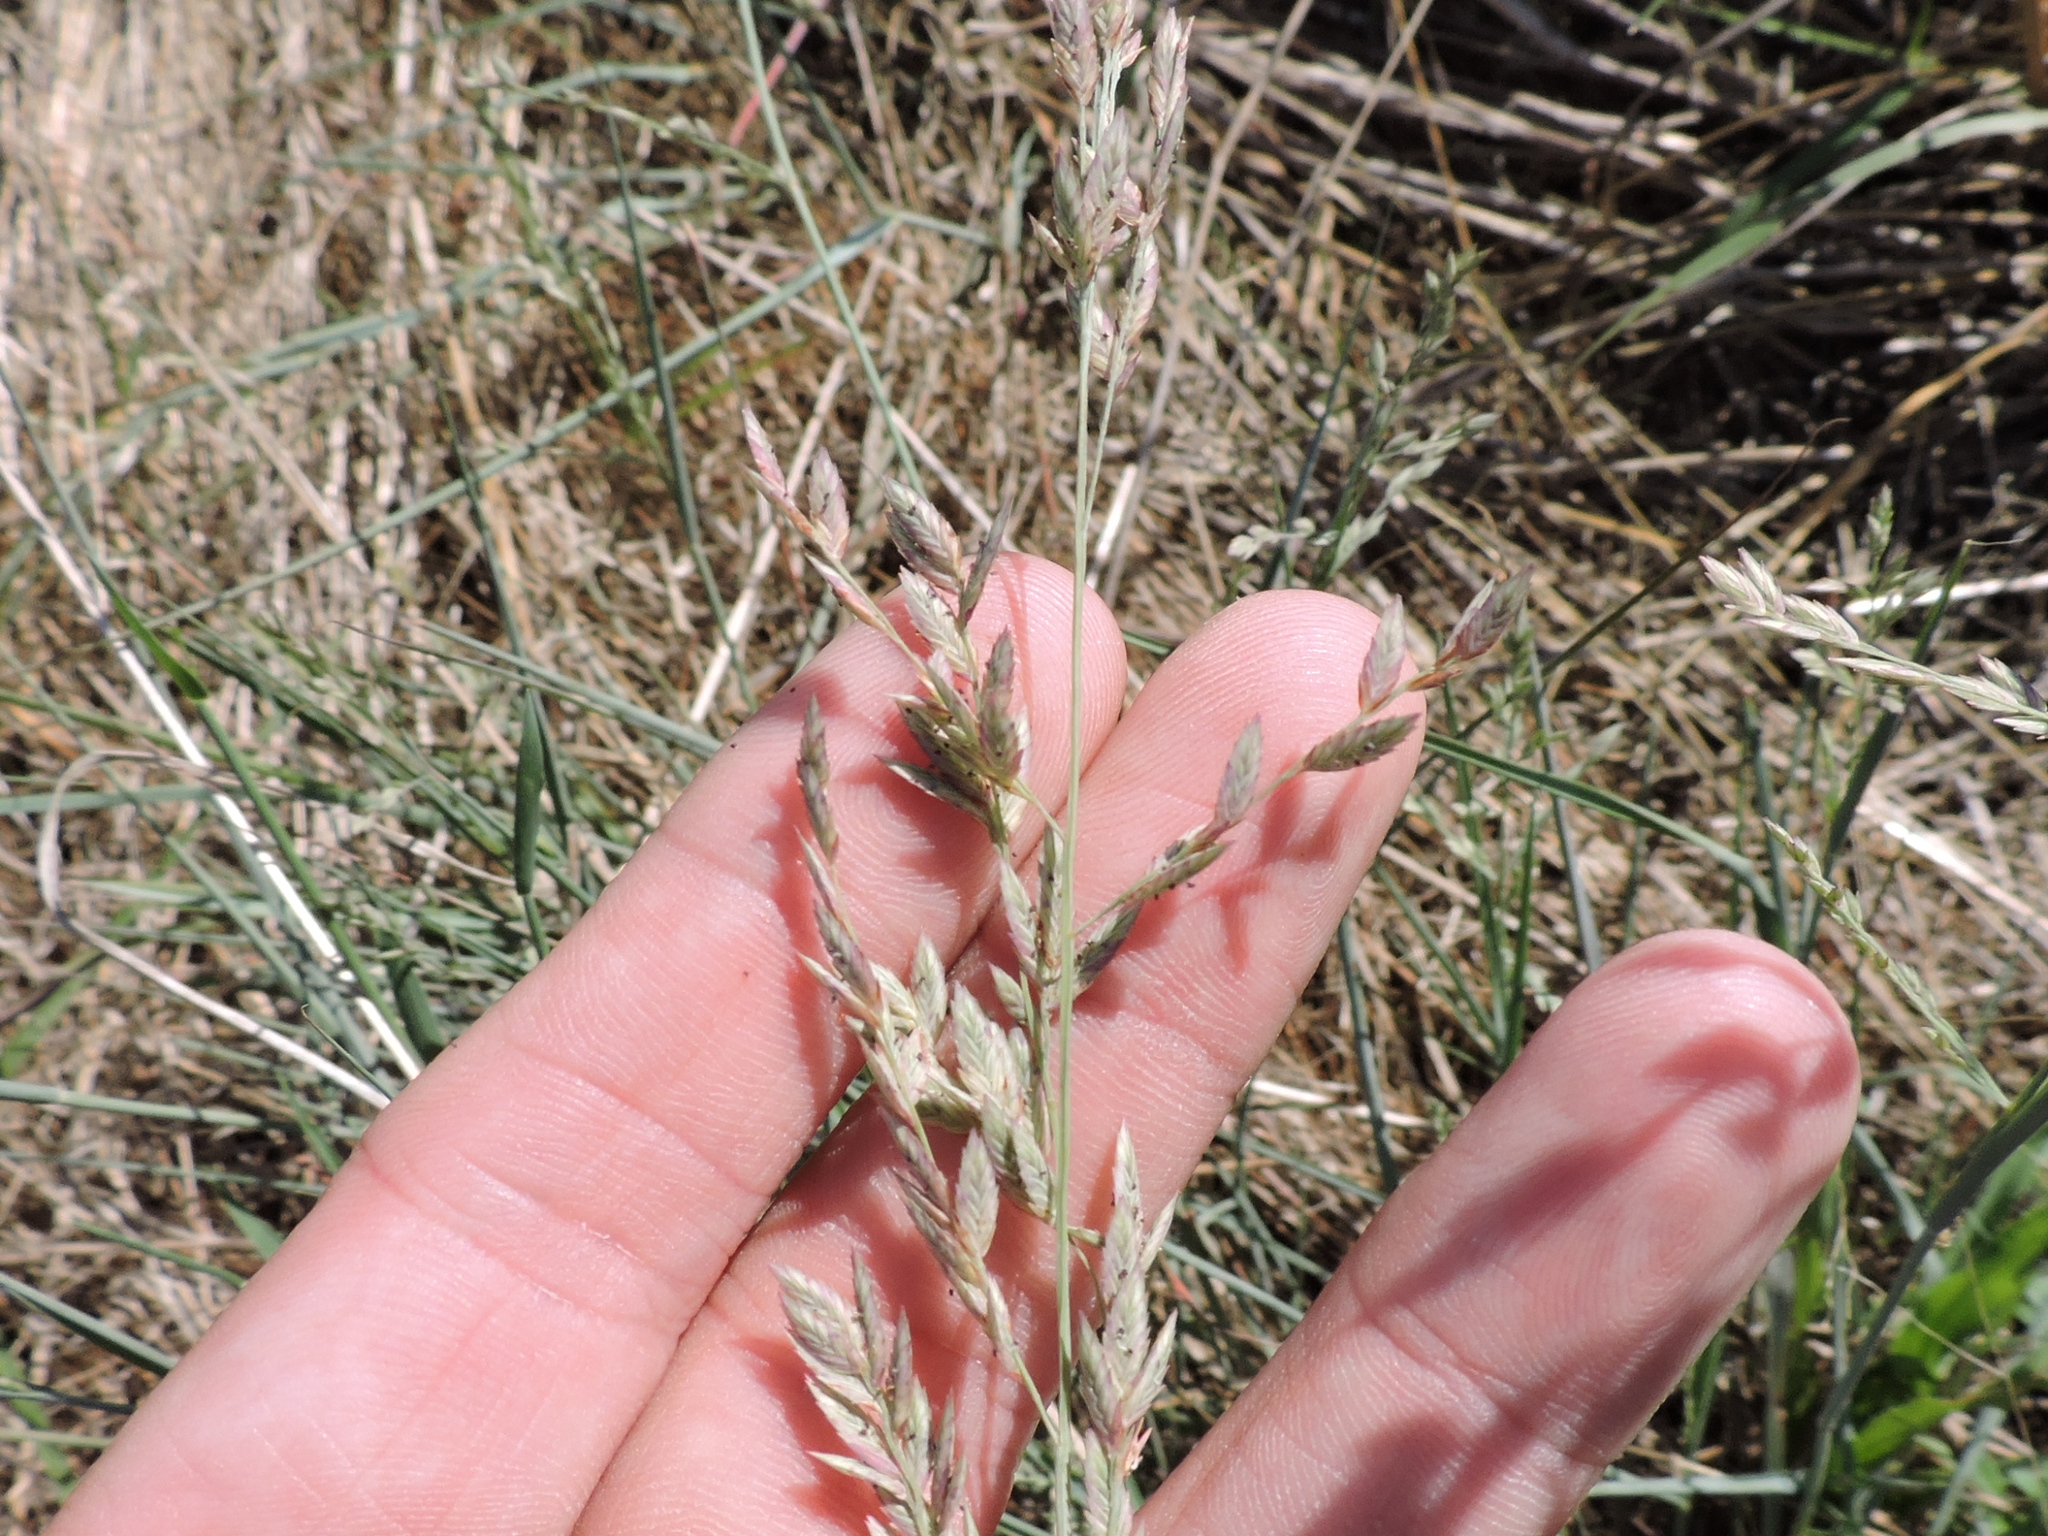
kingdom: Plantae
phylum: Tracheophyta
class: Liliopsida
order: Poales
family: Poaceae
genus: Eragrostis
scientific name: Eragrostis secundiflora
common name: Red love grass
